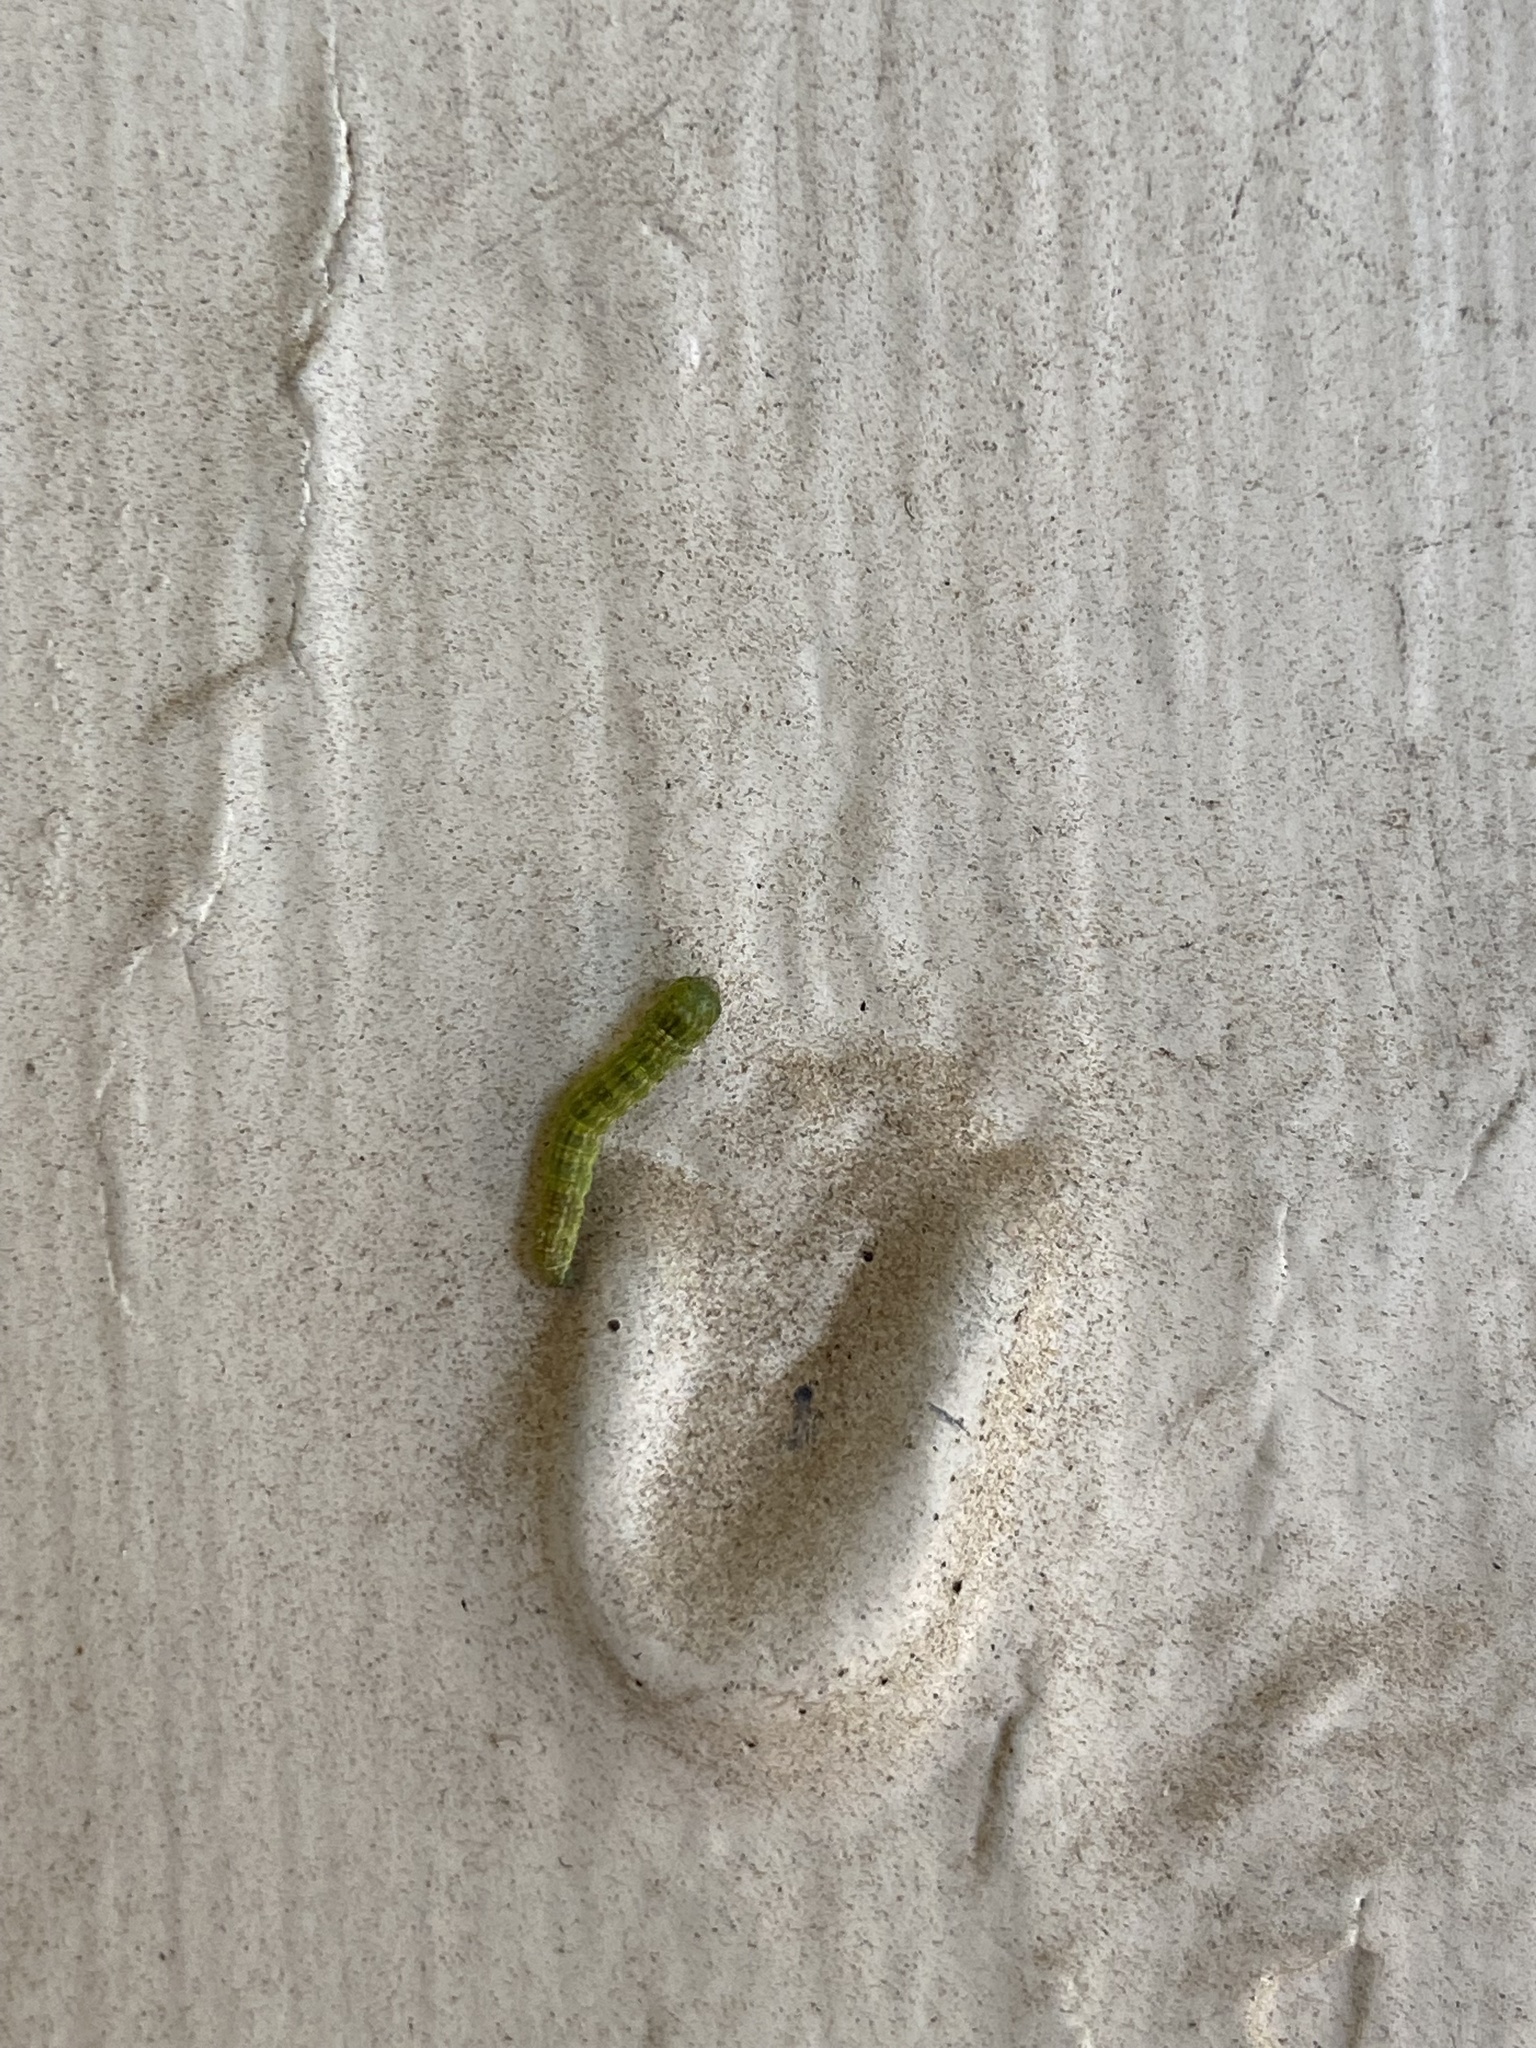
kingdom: Animalia
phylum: Arthropoda
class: Insecta
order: Lepidoptera
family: Pyralidae
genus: Sciota
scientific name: Sciota
